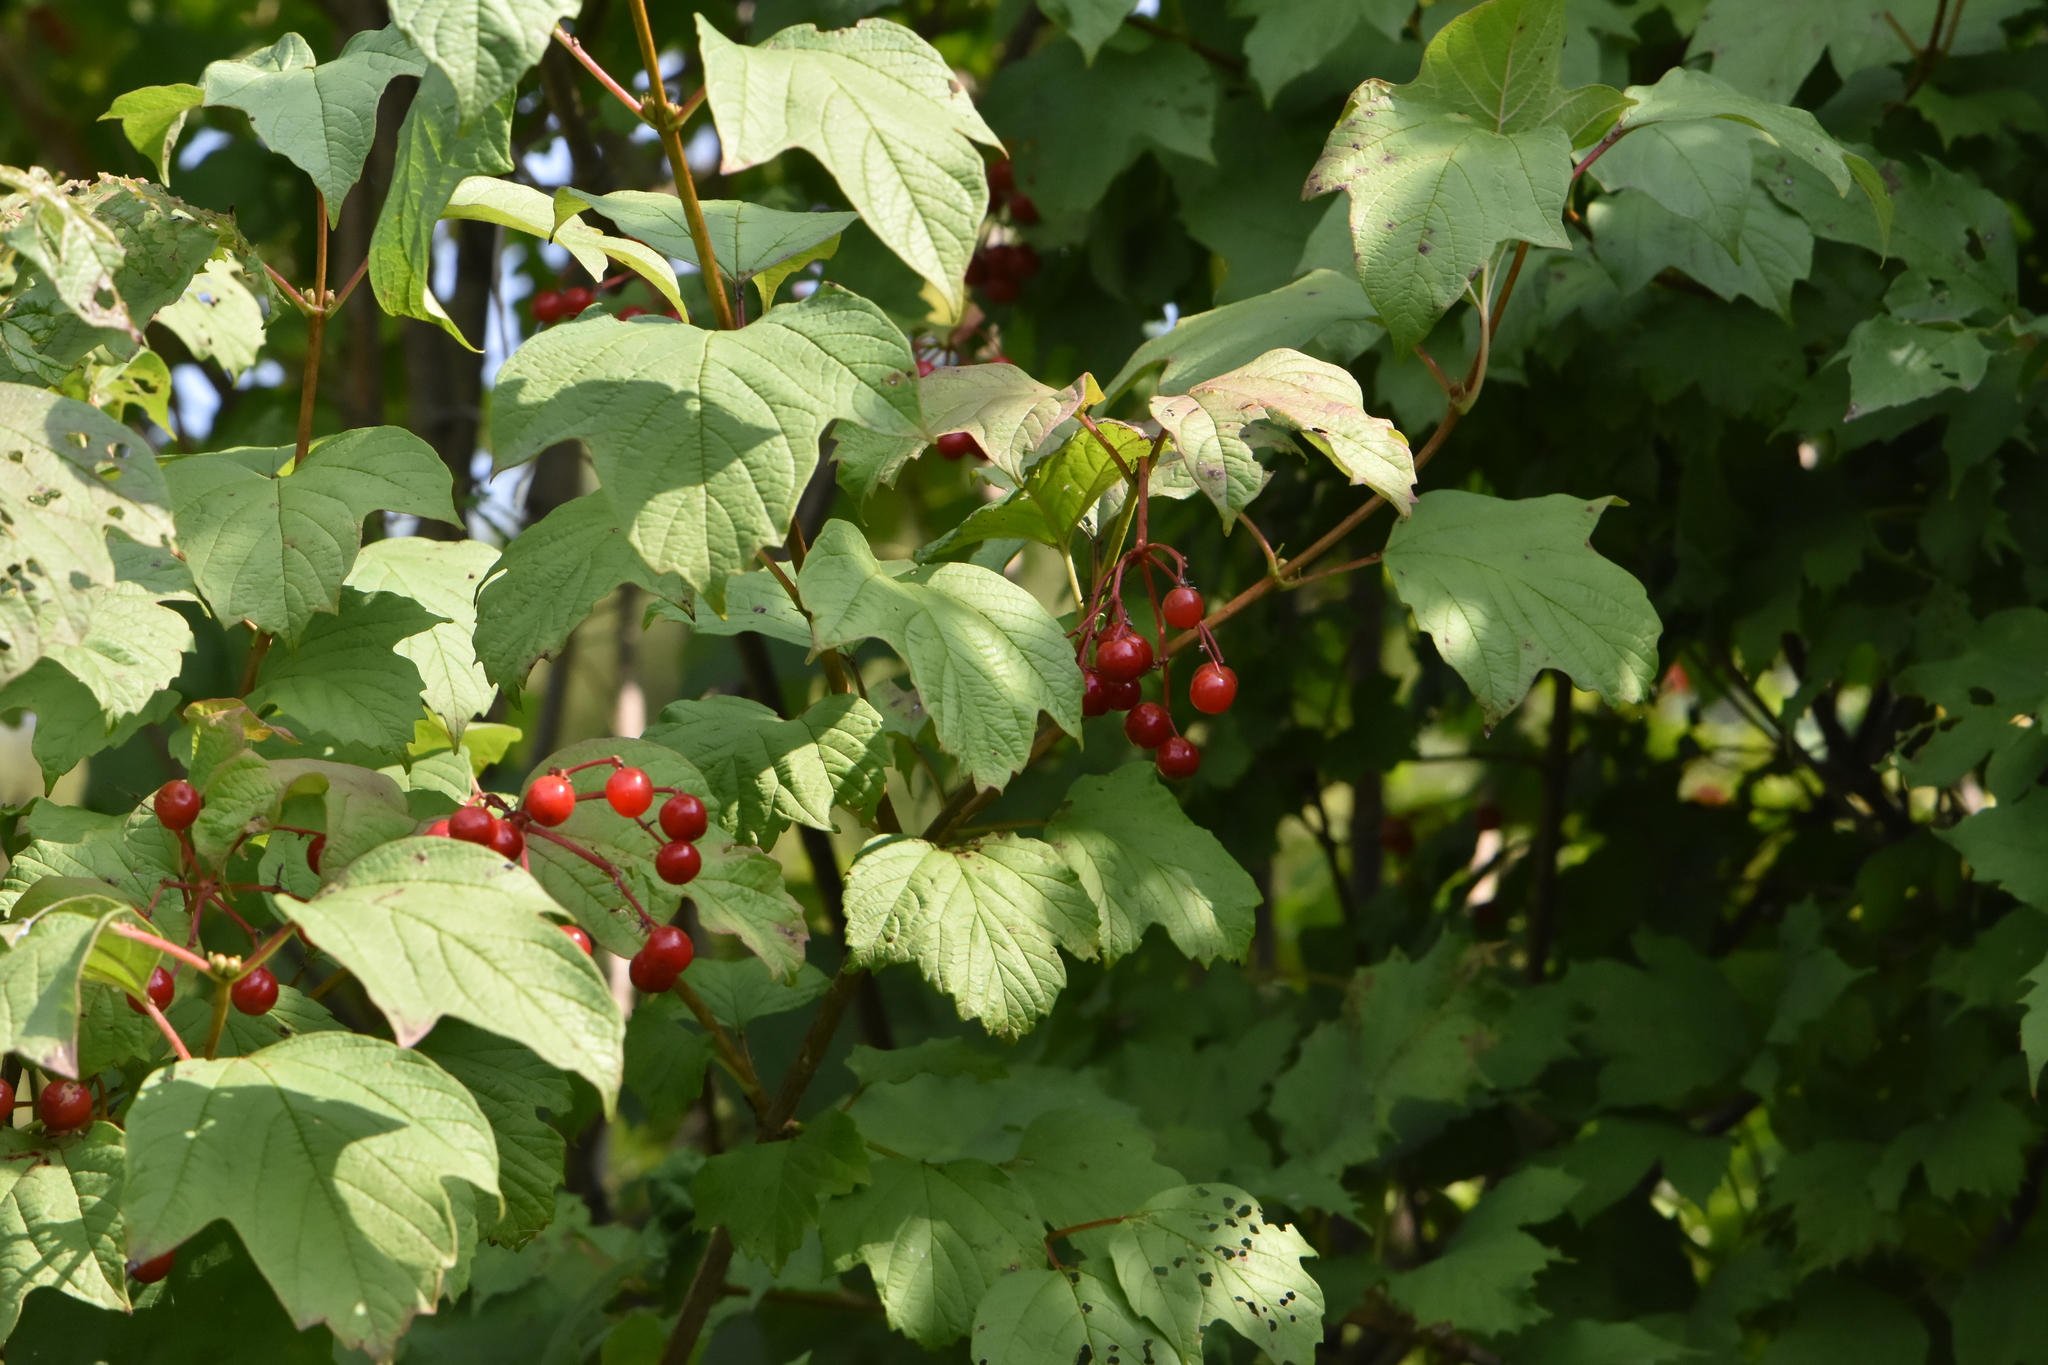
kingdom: Plantae
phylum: Tracheophyta
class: Magnoliopsida
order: Dipsacales
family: Viburnaceae
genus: Viburnum
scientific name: Viburnum opulus
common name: Guelder-rose
